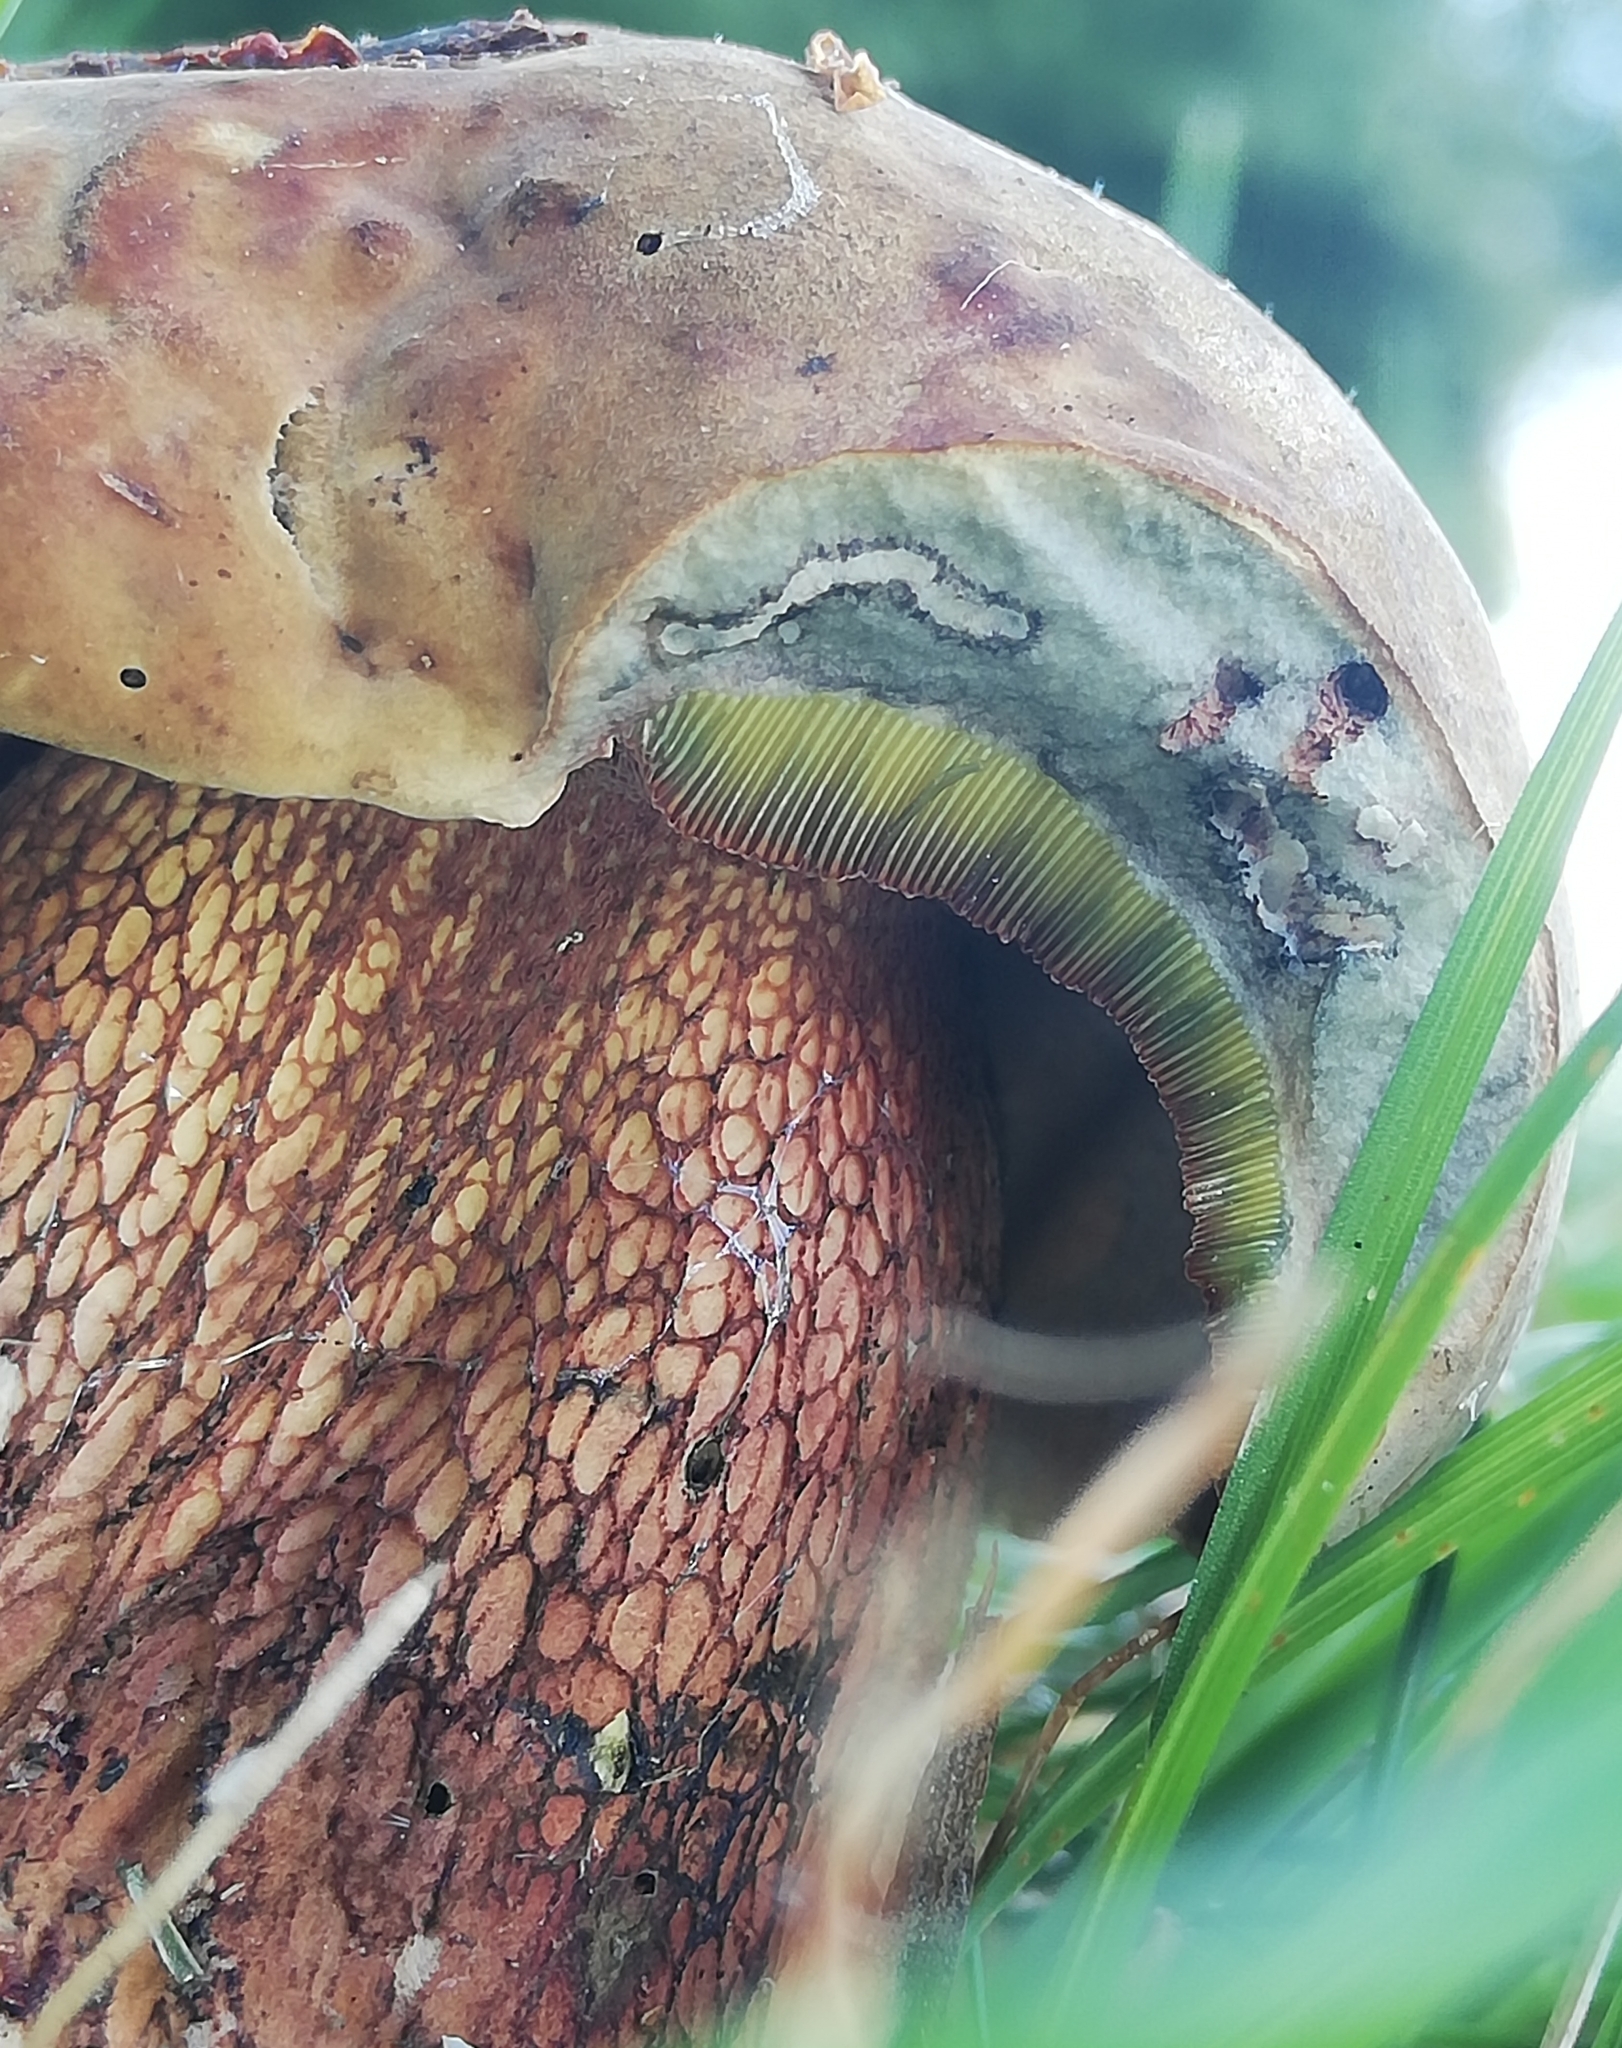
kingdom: Fungi
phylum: Basidiomycota
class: Agaricomycetes
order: Boletales
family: Boletaceae
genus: Suillellus
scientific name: Suillellus luridus
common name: Lurid bolete
